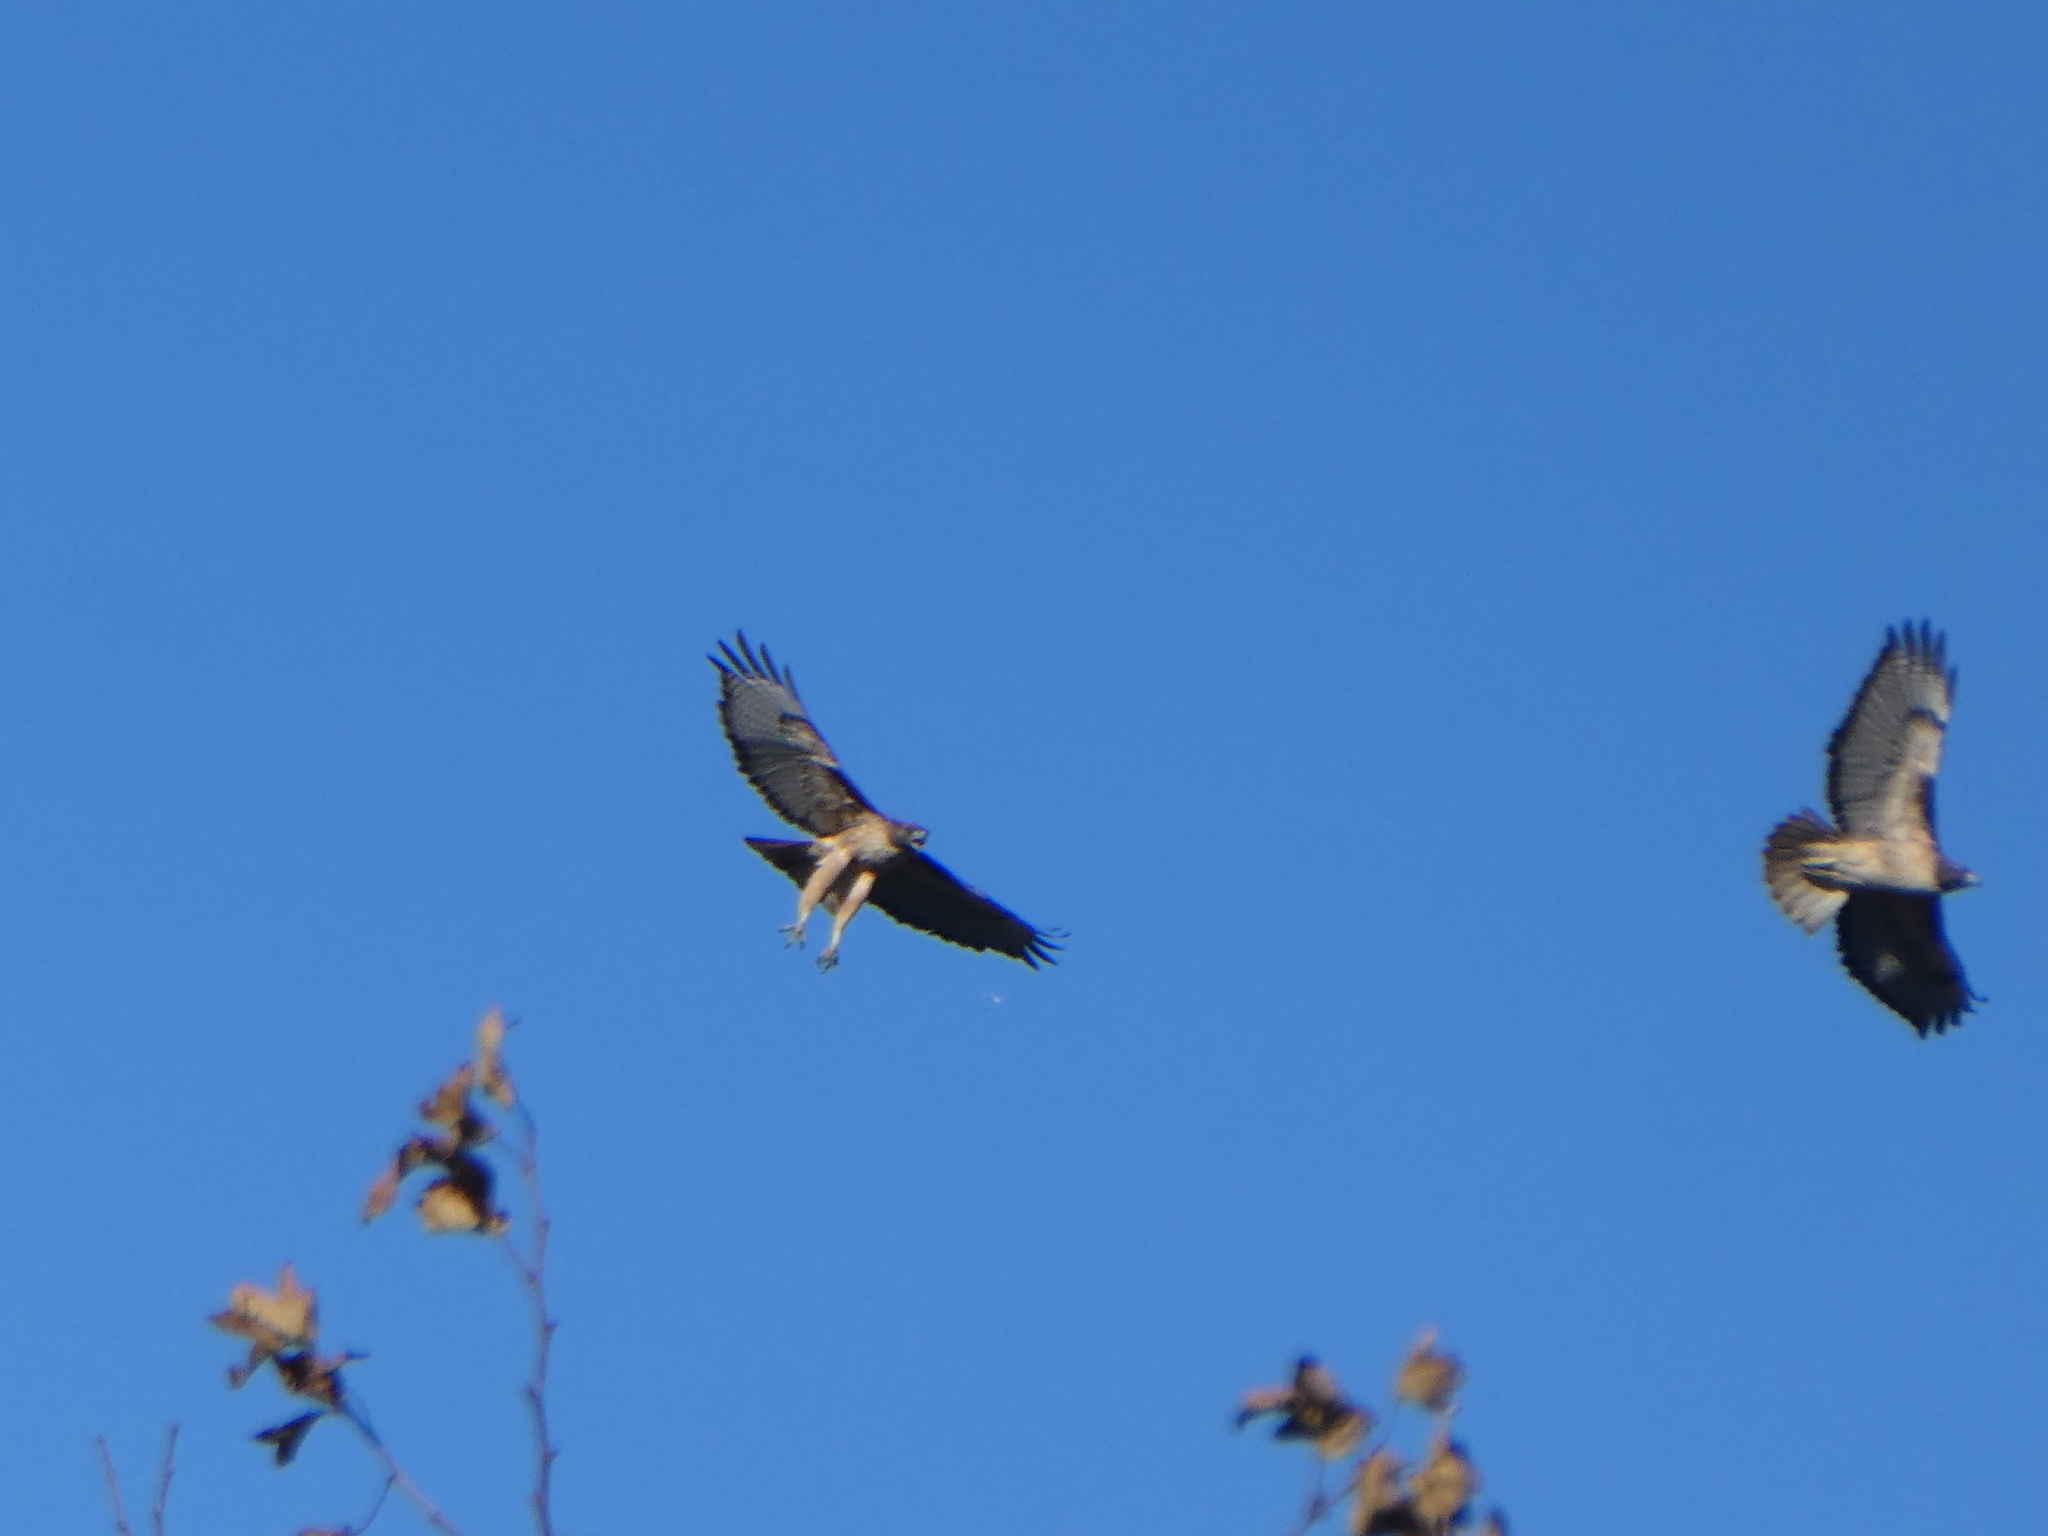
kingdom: Animalia
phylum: Chordata
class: Aves
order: Accipitriformes
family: Accipitridae
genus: Buteo
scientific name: Buteo jamaicensis
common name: Red-tailed hawk
